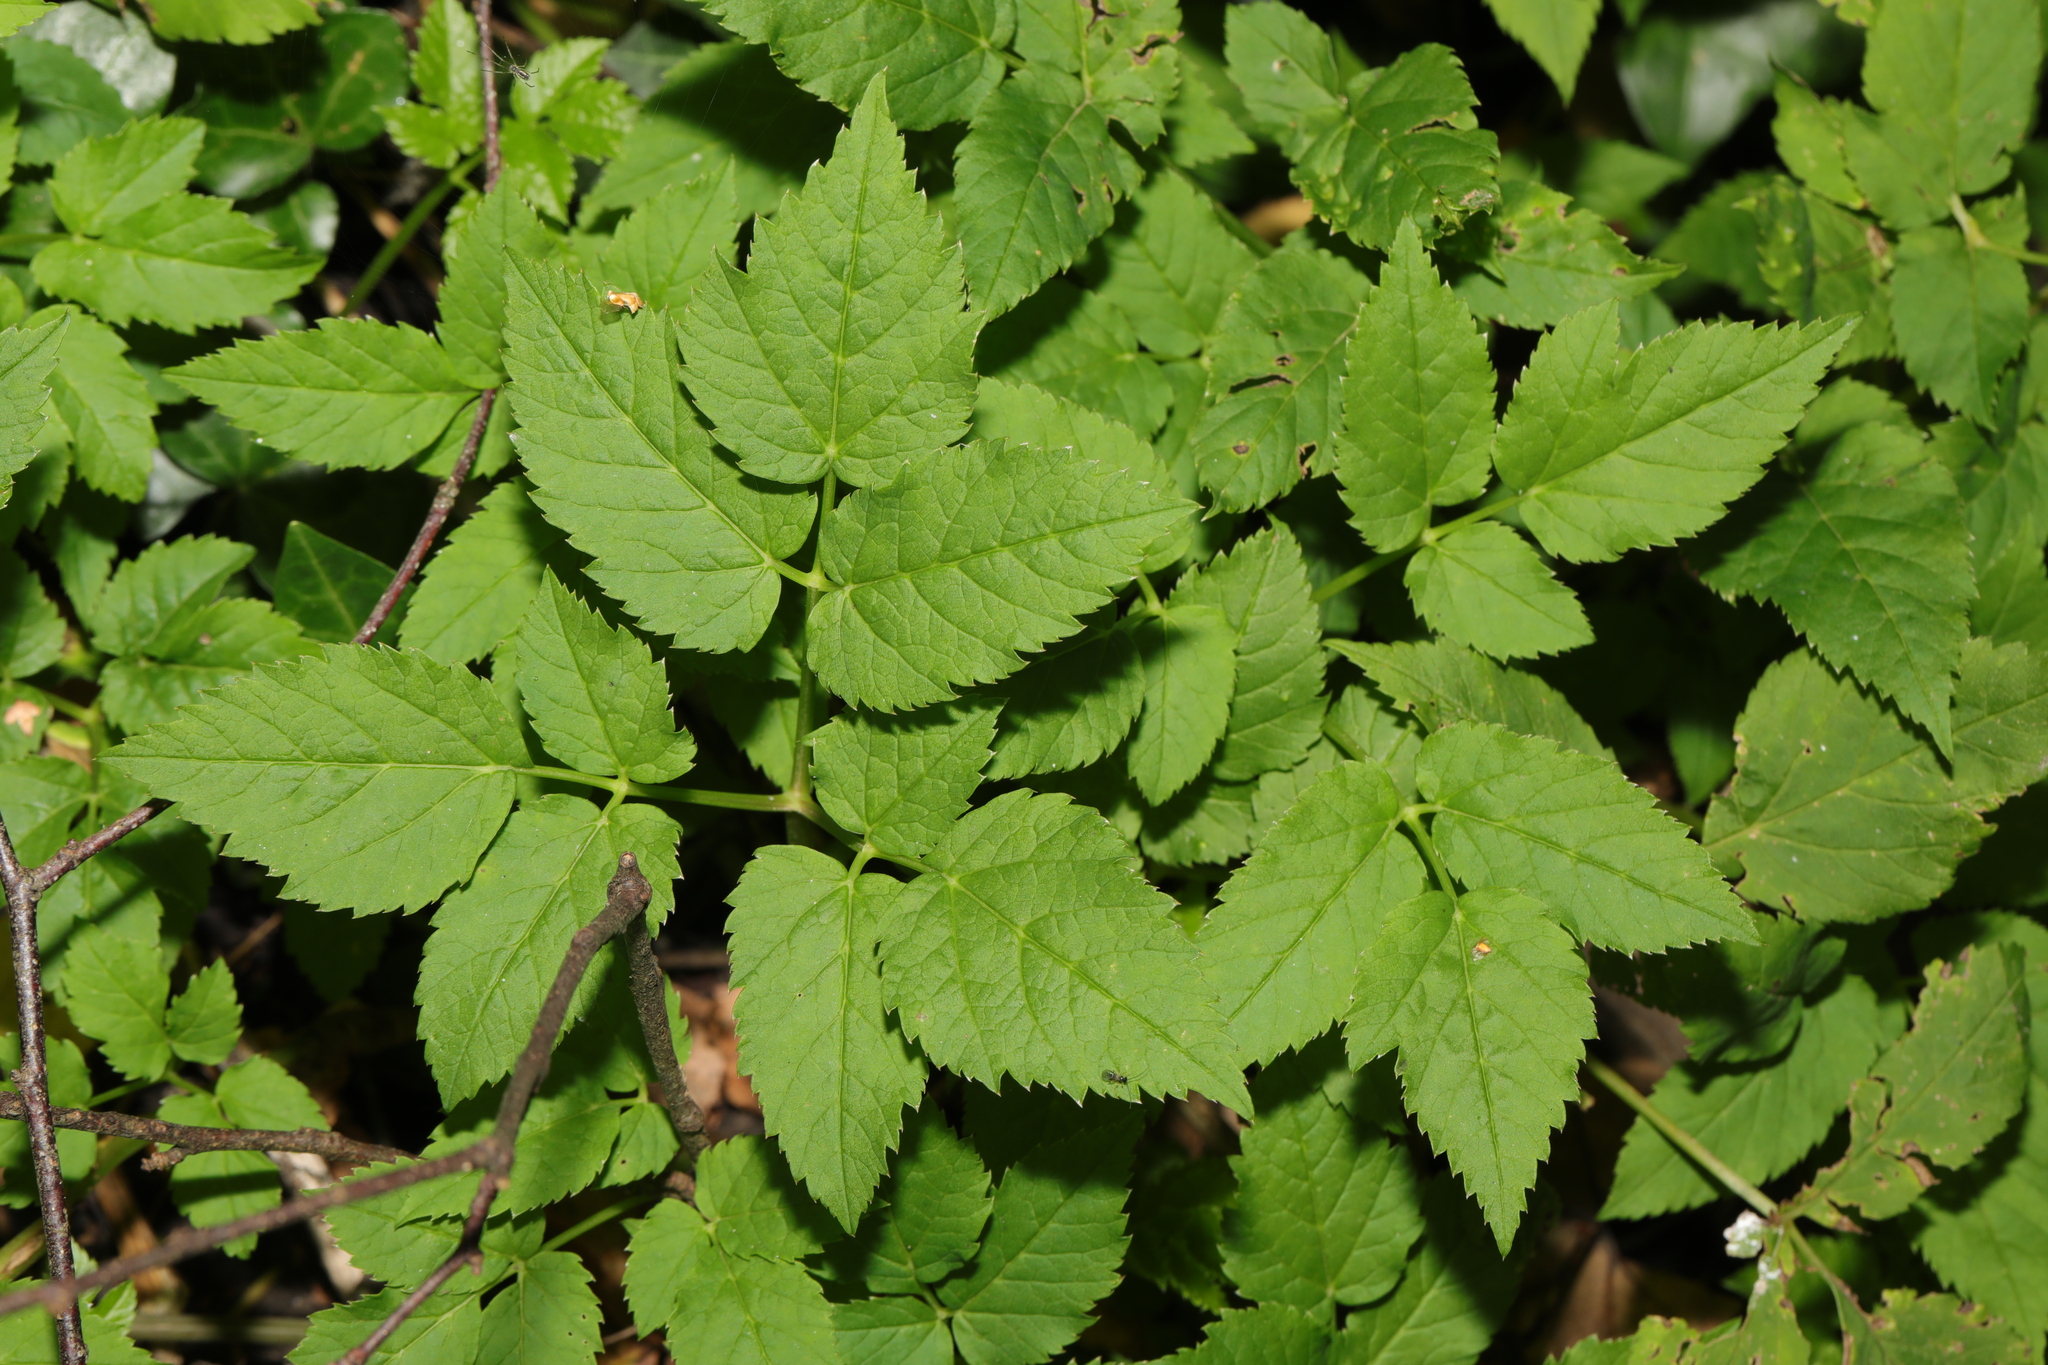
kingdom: Plantae
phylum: Tracheophyta
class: Magnoliopsida
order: Apiales
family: Apiaceae
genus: Aegopodium
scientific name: Aegopodium podagraria
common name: Ground-elder
